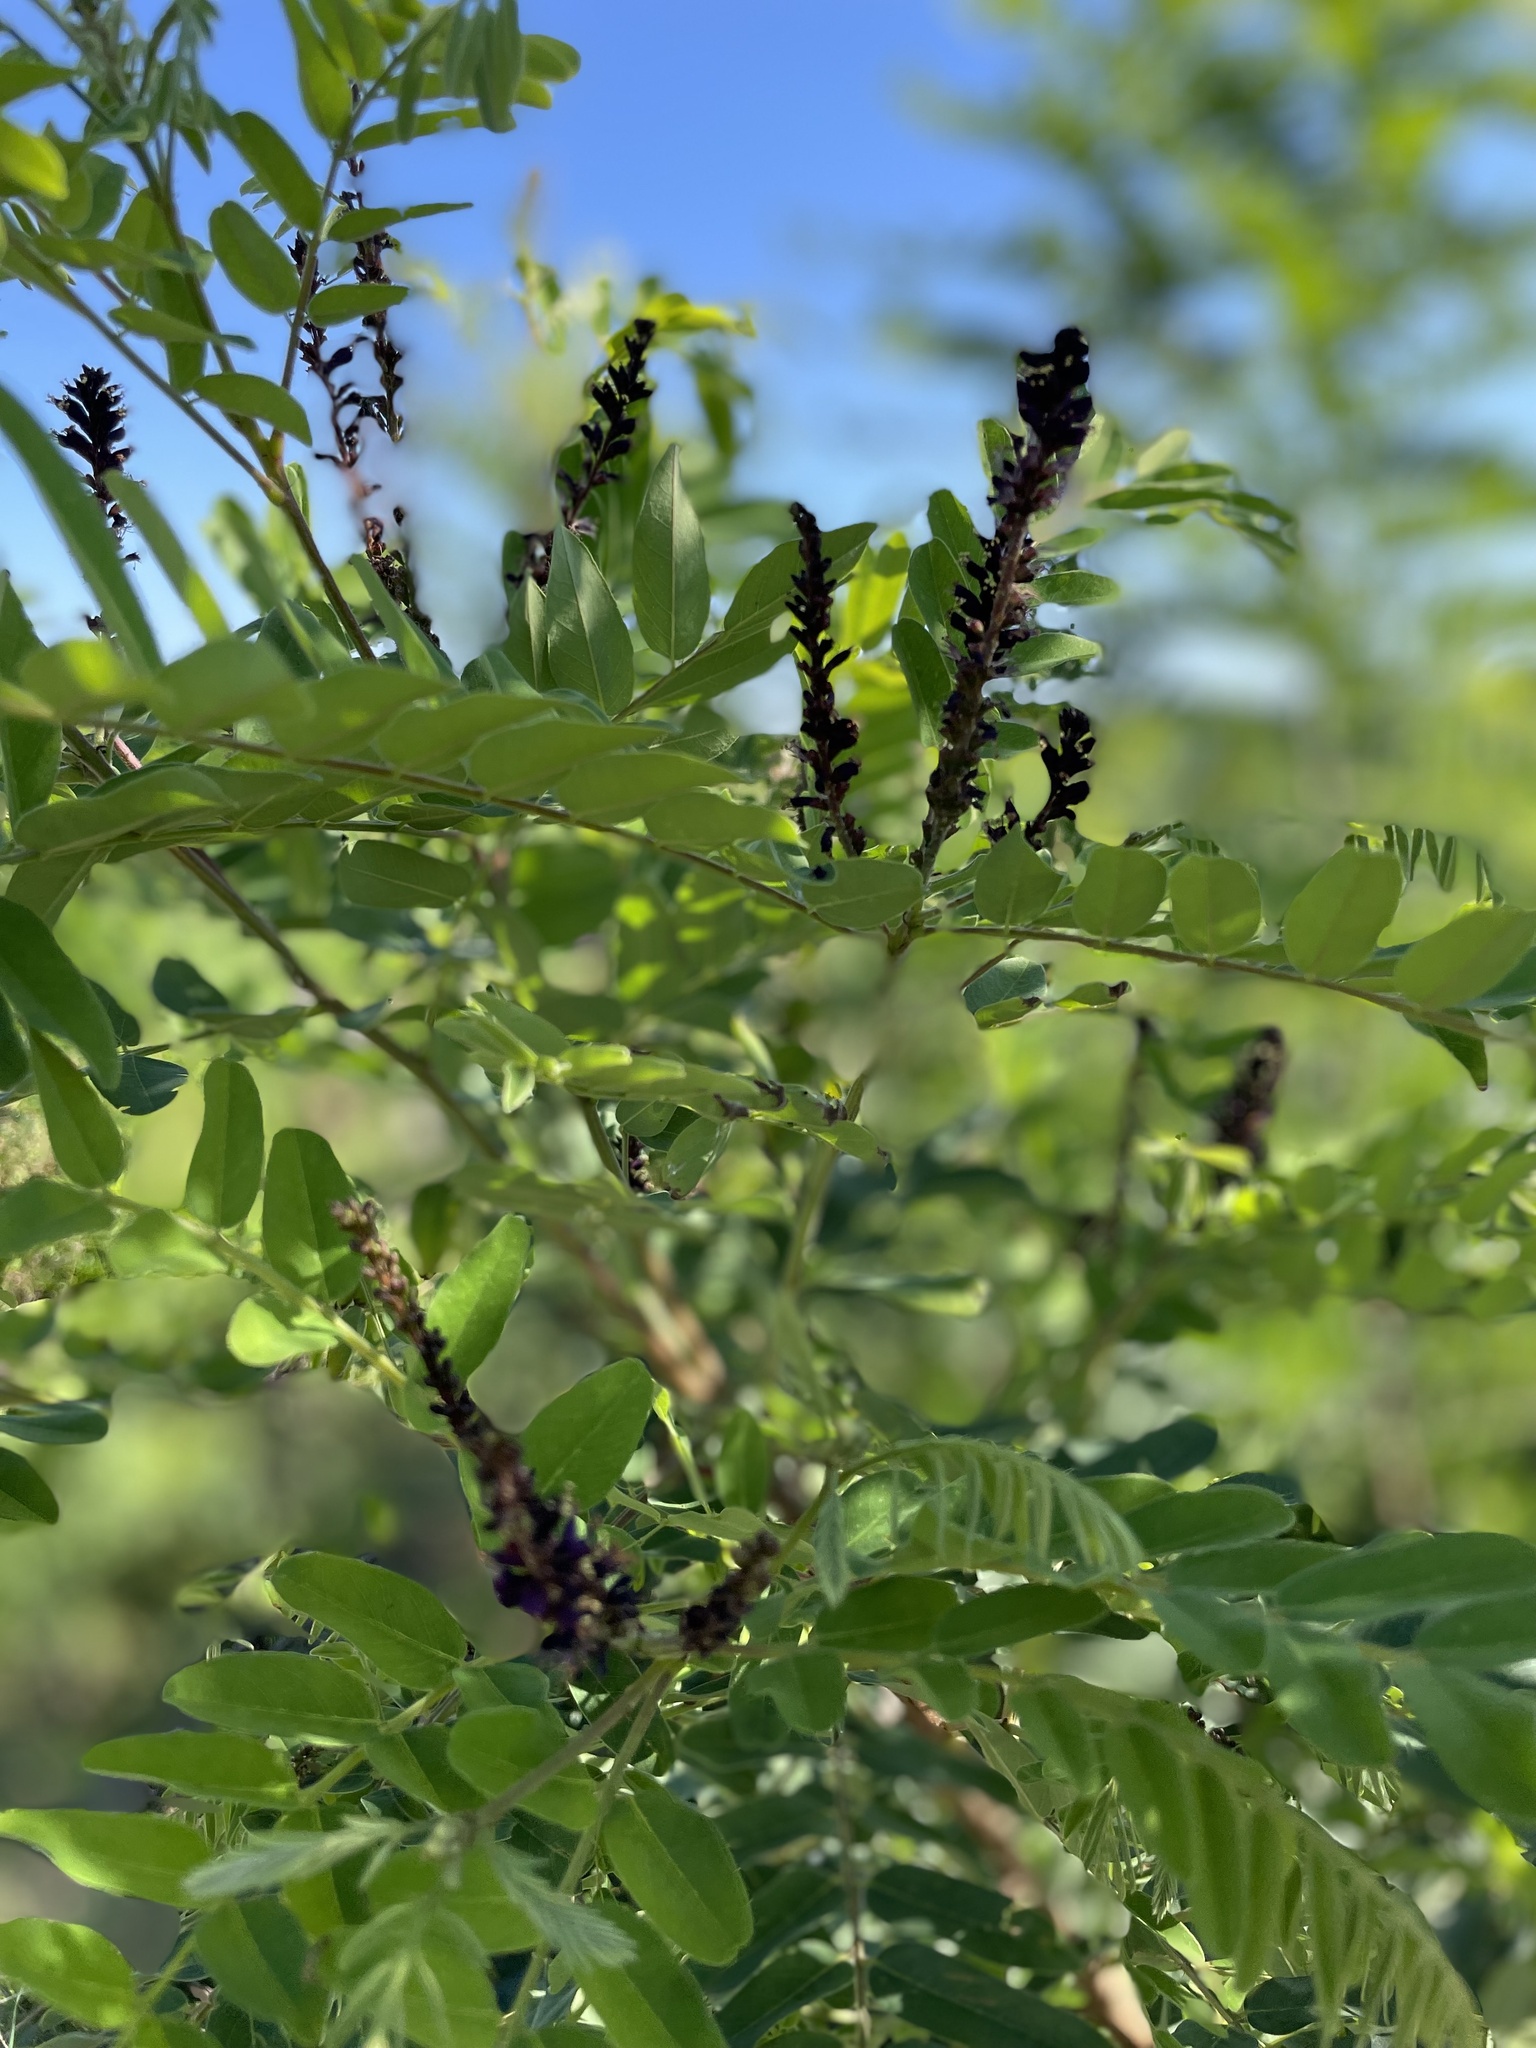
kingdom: Plantae
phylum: Tracheophyta
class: Magnoliopsida
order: Fabales
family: Fabaceae
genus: Amorpha
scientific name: Amorpha fruticosa
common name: False indigo
